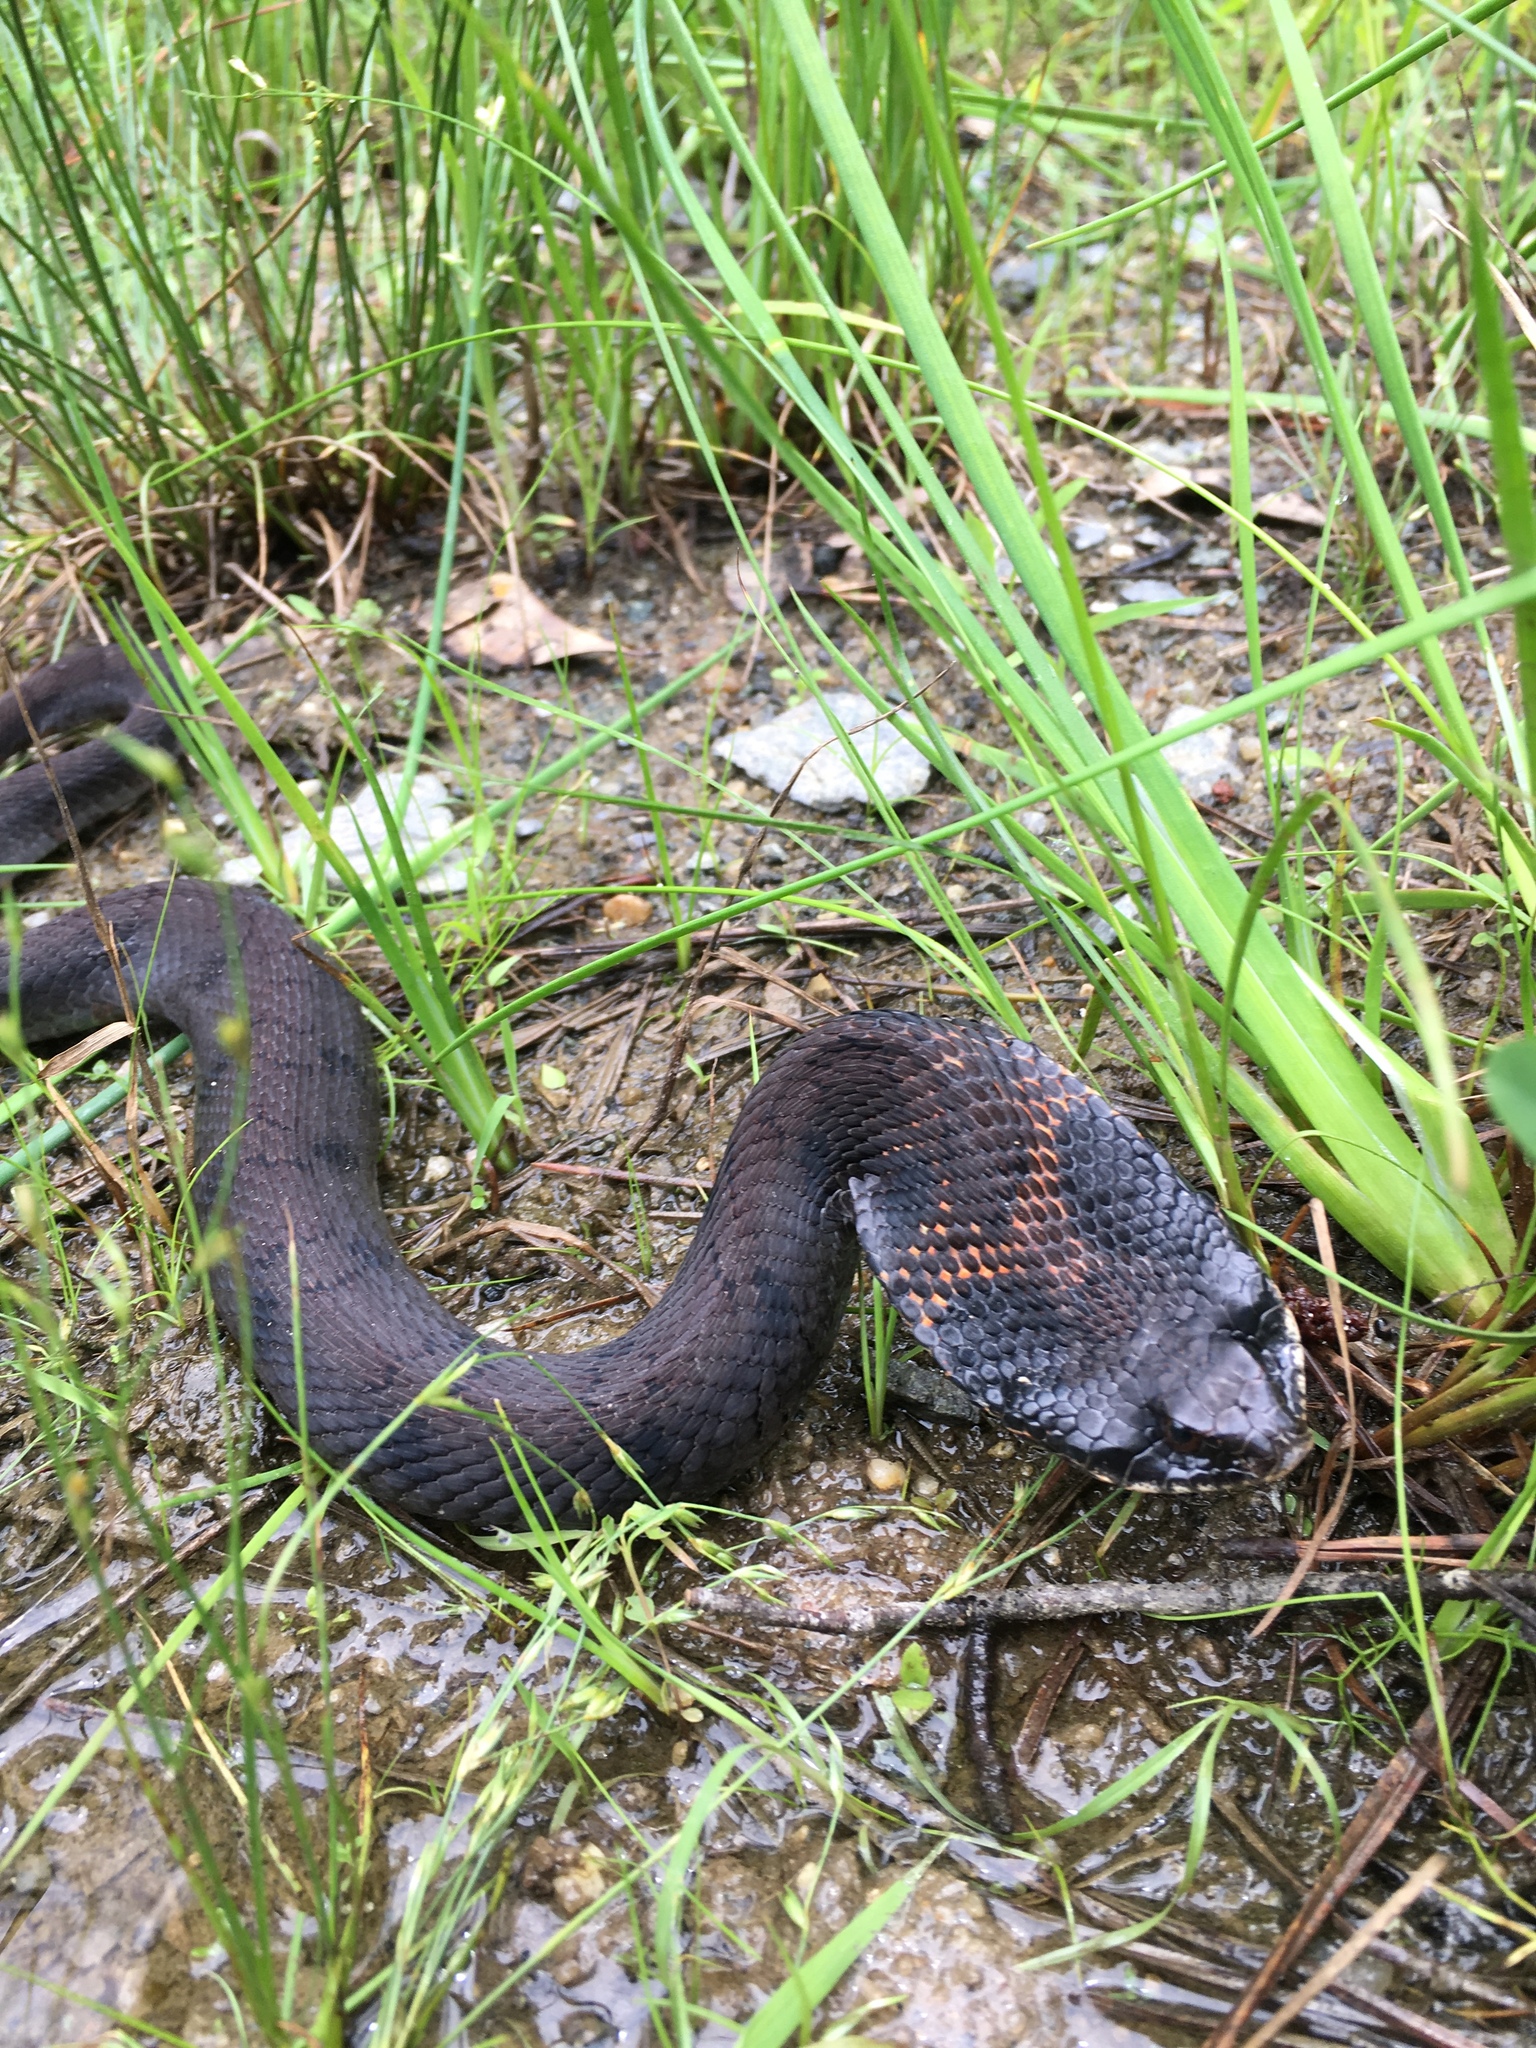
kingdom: Animalia
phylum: Chordata
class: Squamata
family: Colubridae
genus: Heterodon
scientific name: Heterodon platirhinos
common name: Eastern hognose snake
